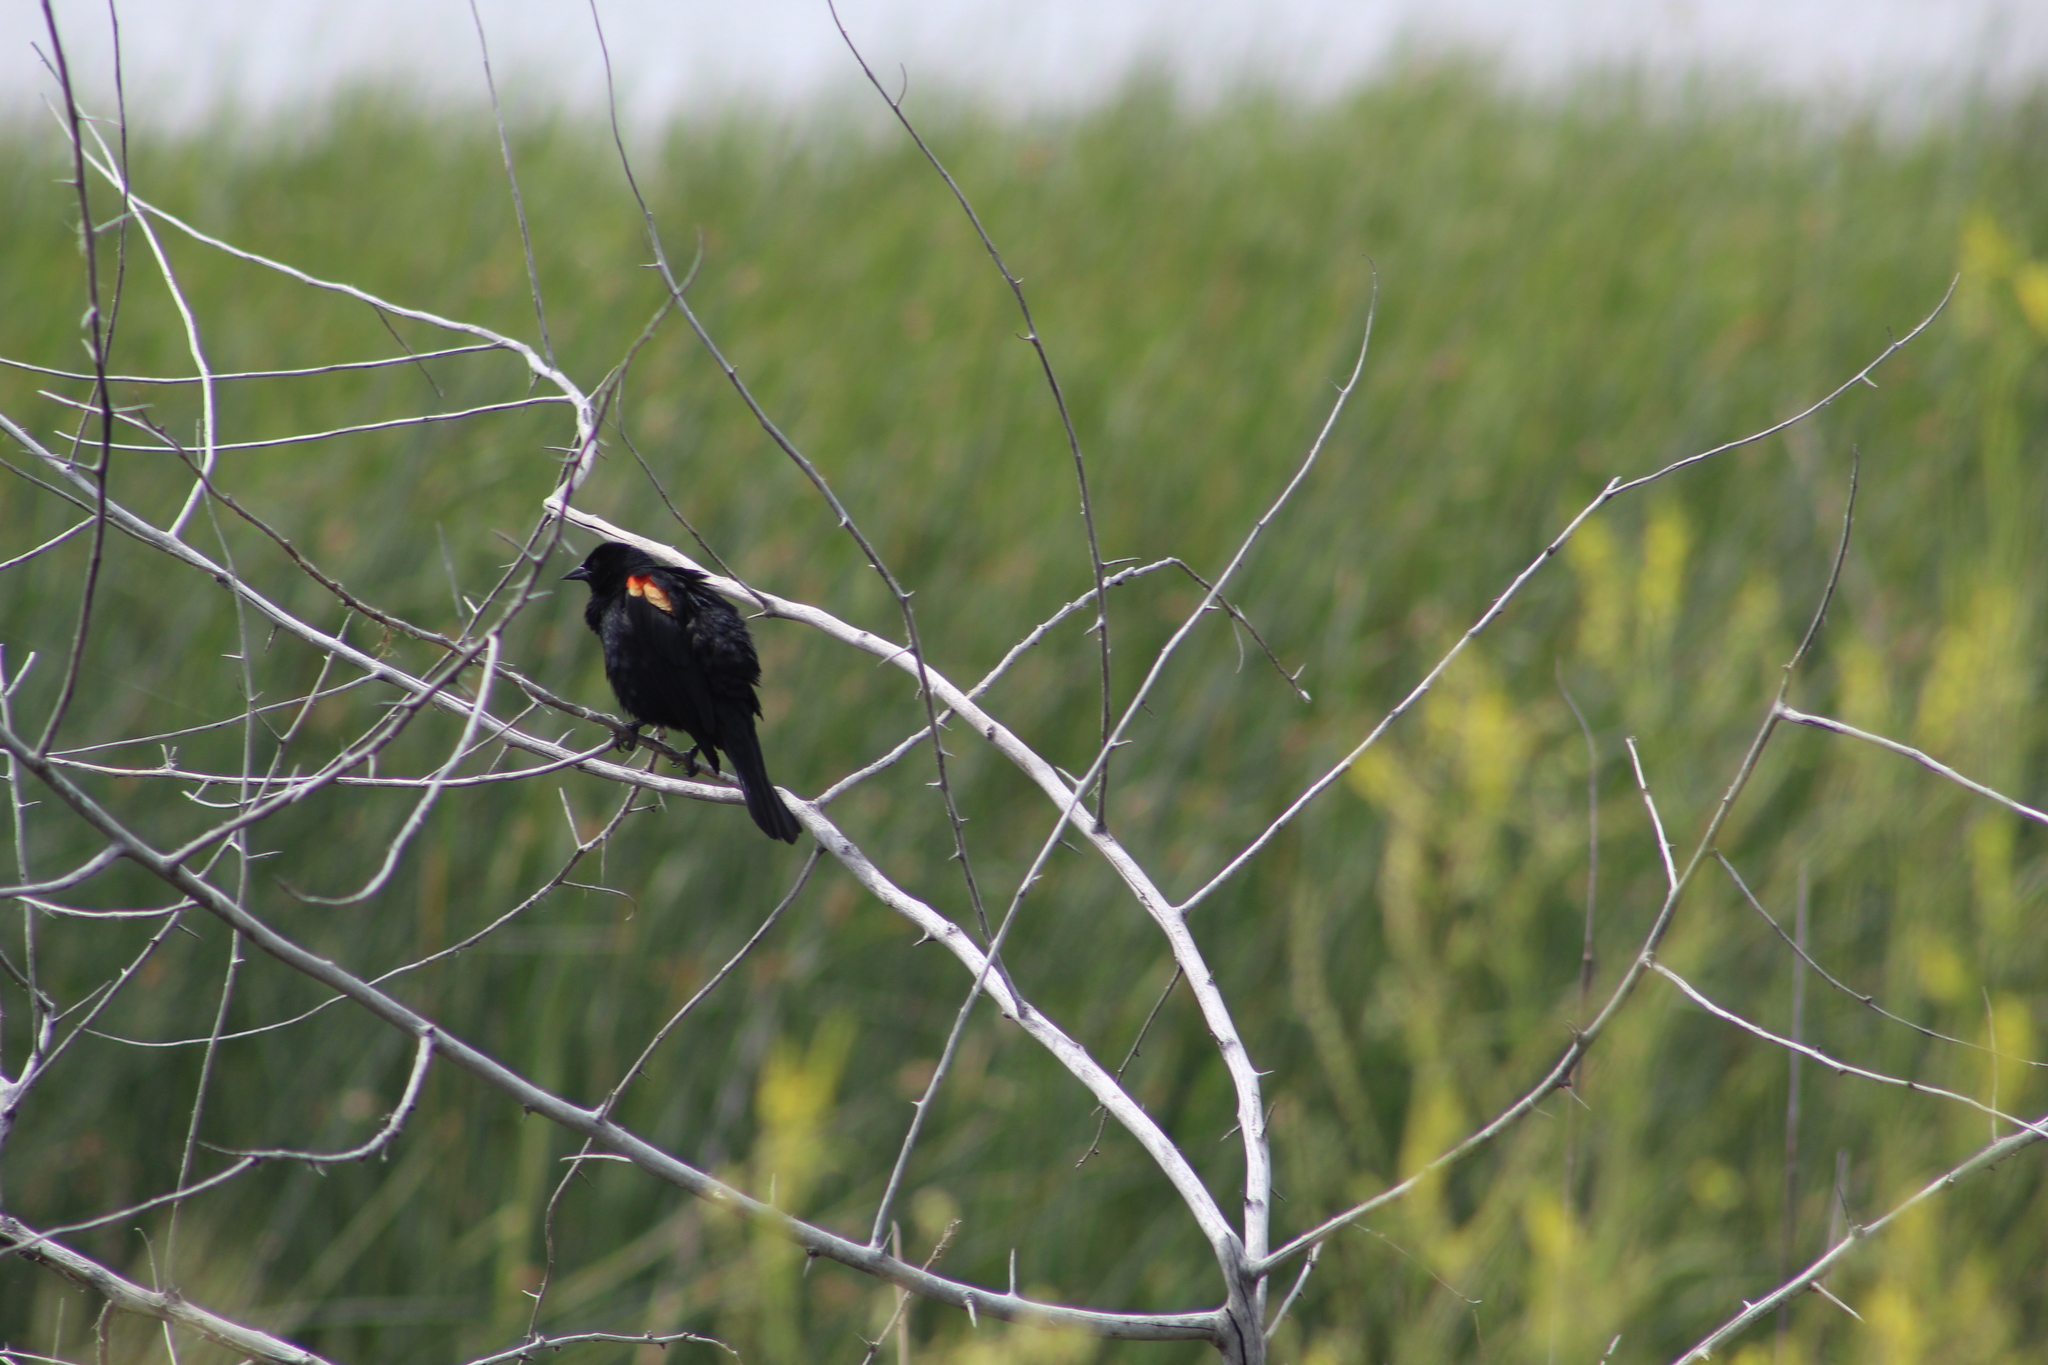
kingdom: Animalia
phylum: Chordata
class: Aves
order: Passeriformes
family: Icteridae
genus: Agelaius
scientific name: Agelaius phoeniceus
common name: Red-winged blackbird
